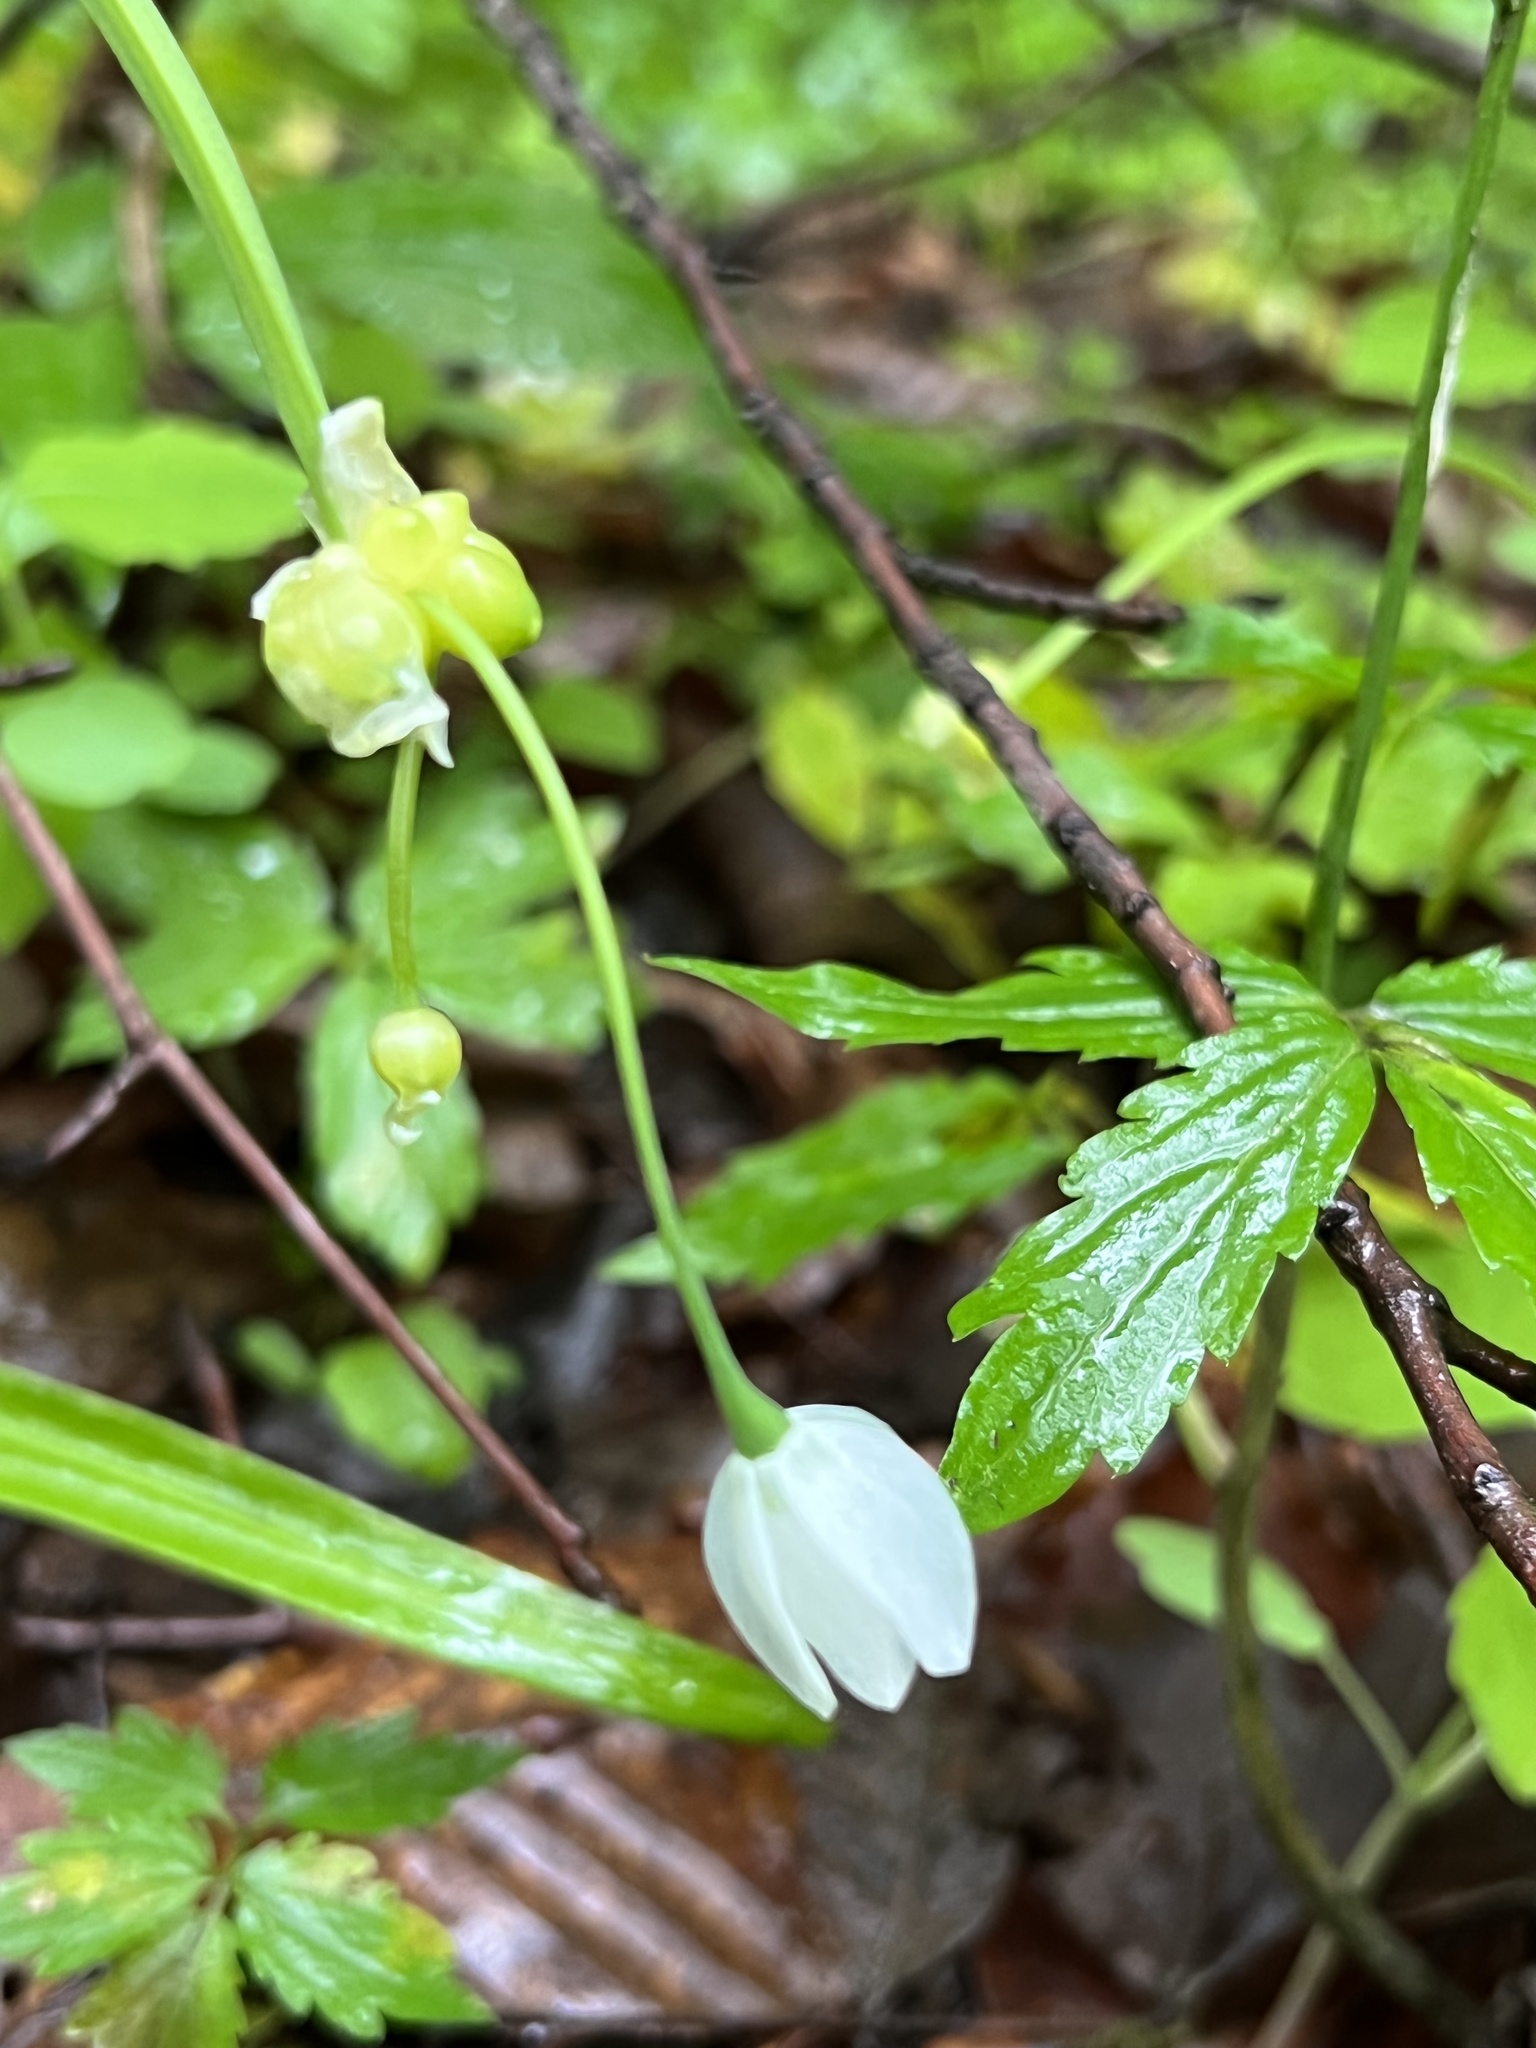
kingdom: Plantae
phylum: Tracheophyta
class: Liliopsida
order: Asparagales
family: Amaryllidaceae
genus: Allium
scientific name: Allium paradoxum
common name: Few-flowered garlic
